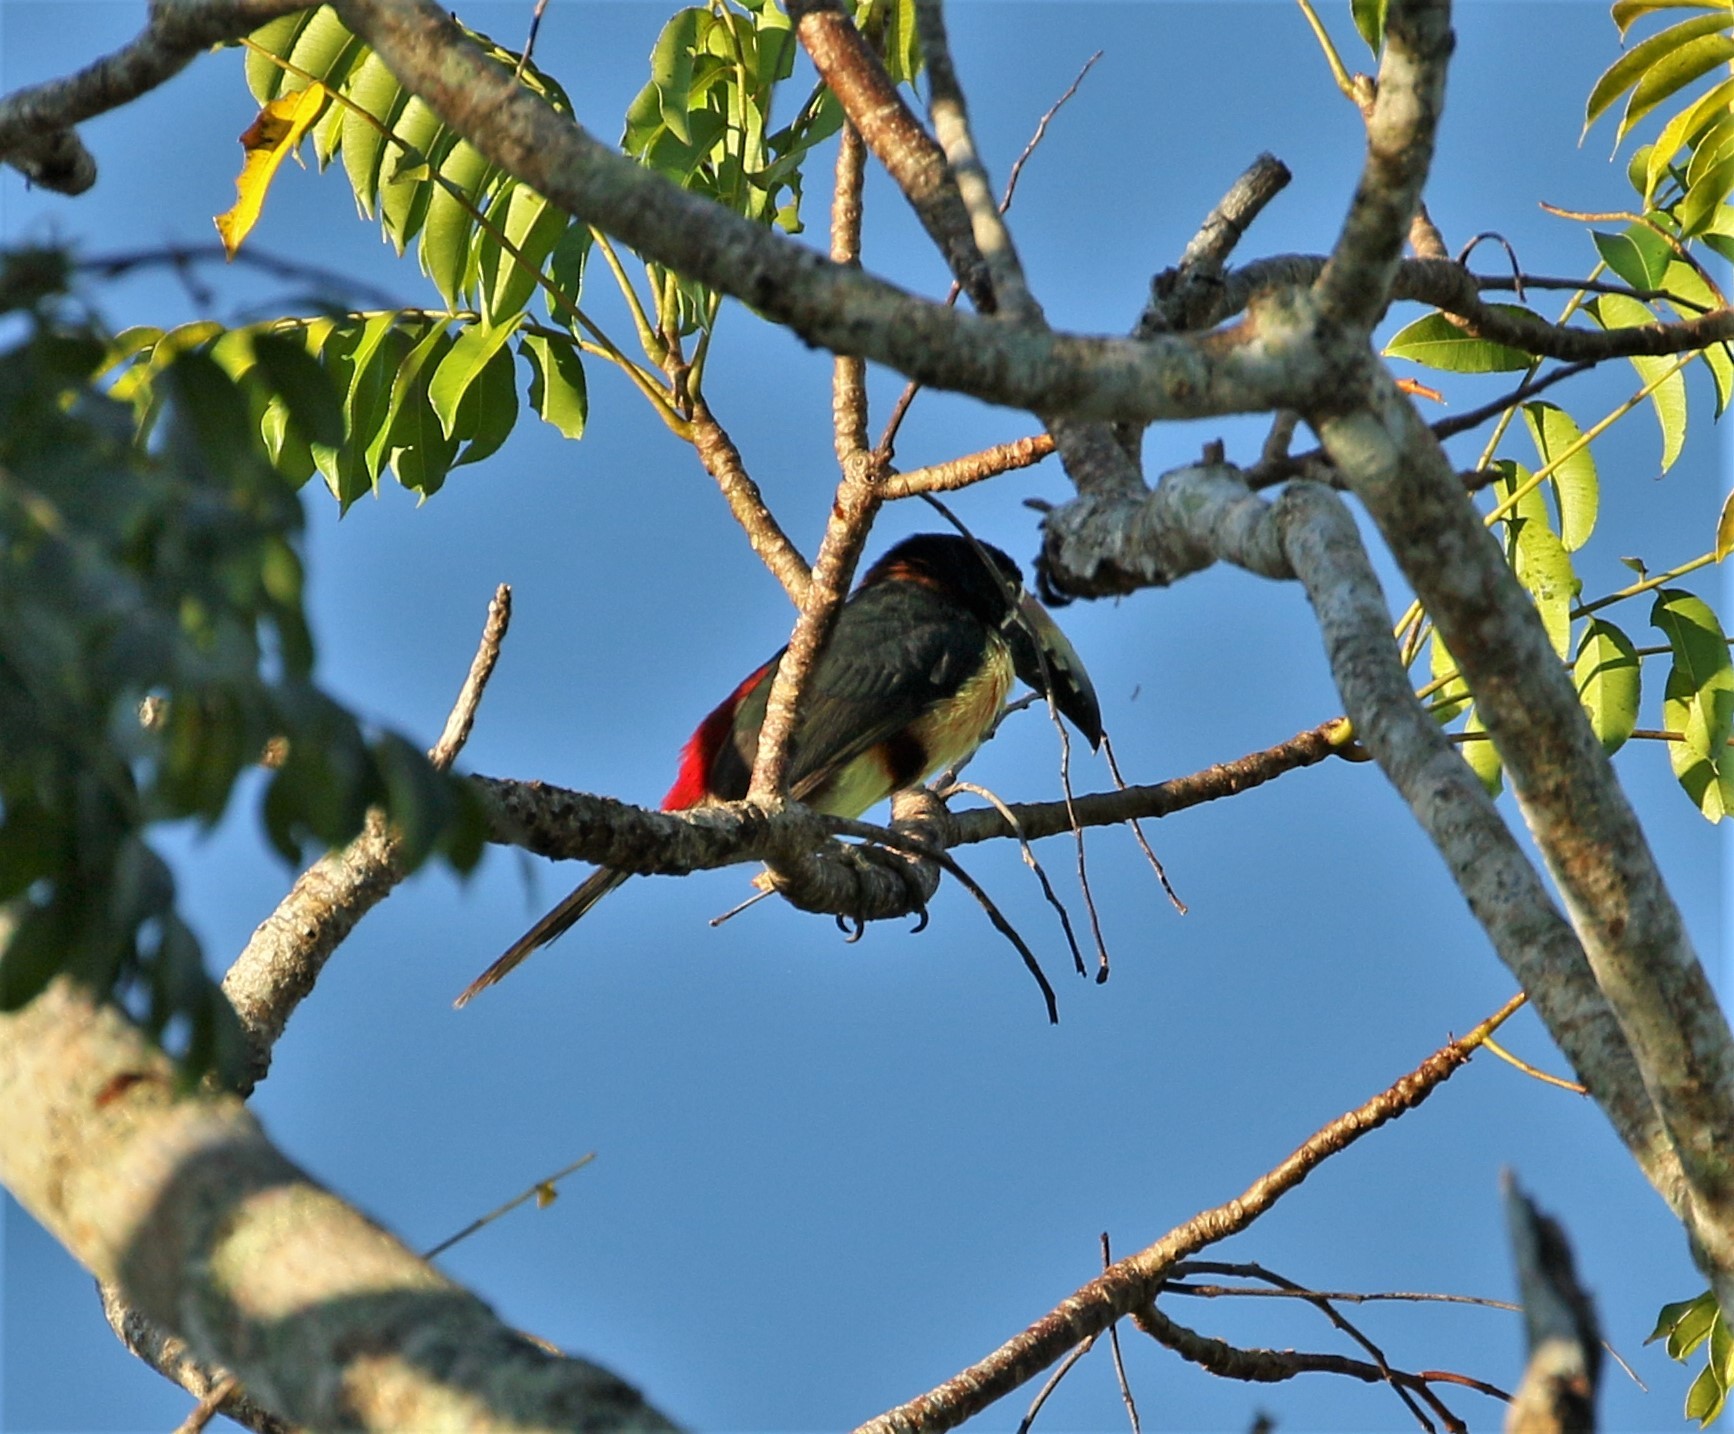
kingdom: Animalia
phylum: Chordata
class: Aves
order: Piciformes
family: Ramphastidae
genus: Pteroglossus
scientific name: Pteroglossus torquatus
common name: Collared aracari
